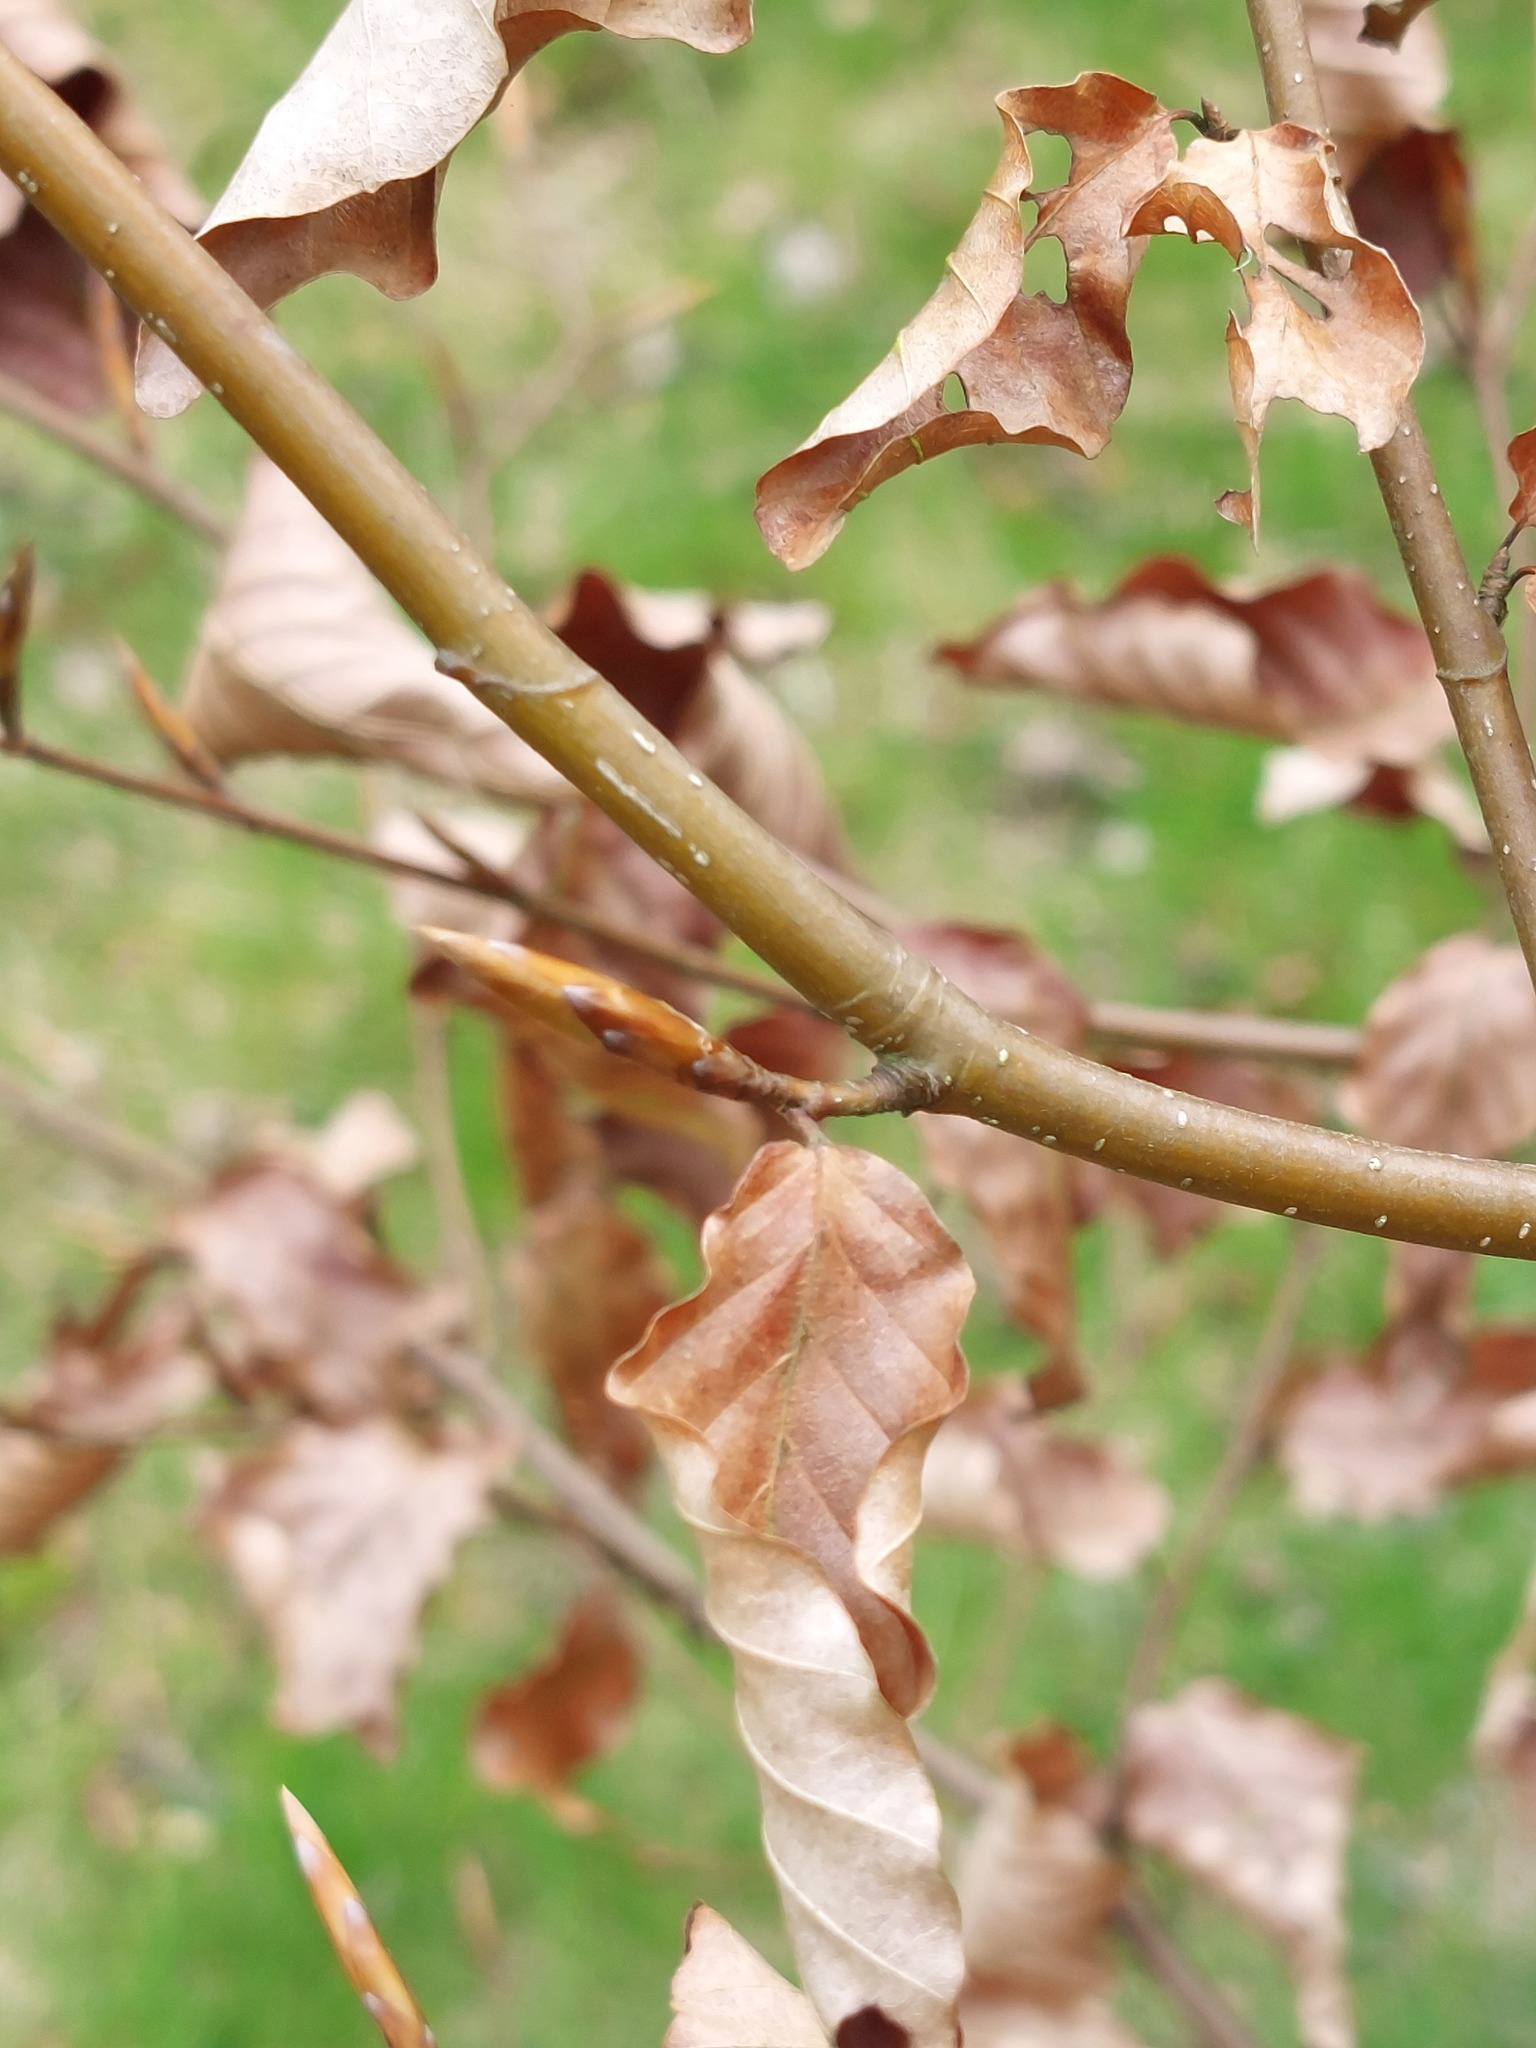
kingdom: Plantae
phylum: Tracheophyta
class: Magnoliopsida
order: Fagales
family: Fagaceae
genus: Fagus
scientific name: Fagus sylvatica
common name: Beech
